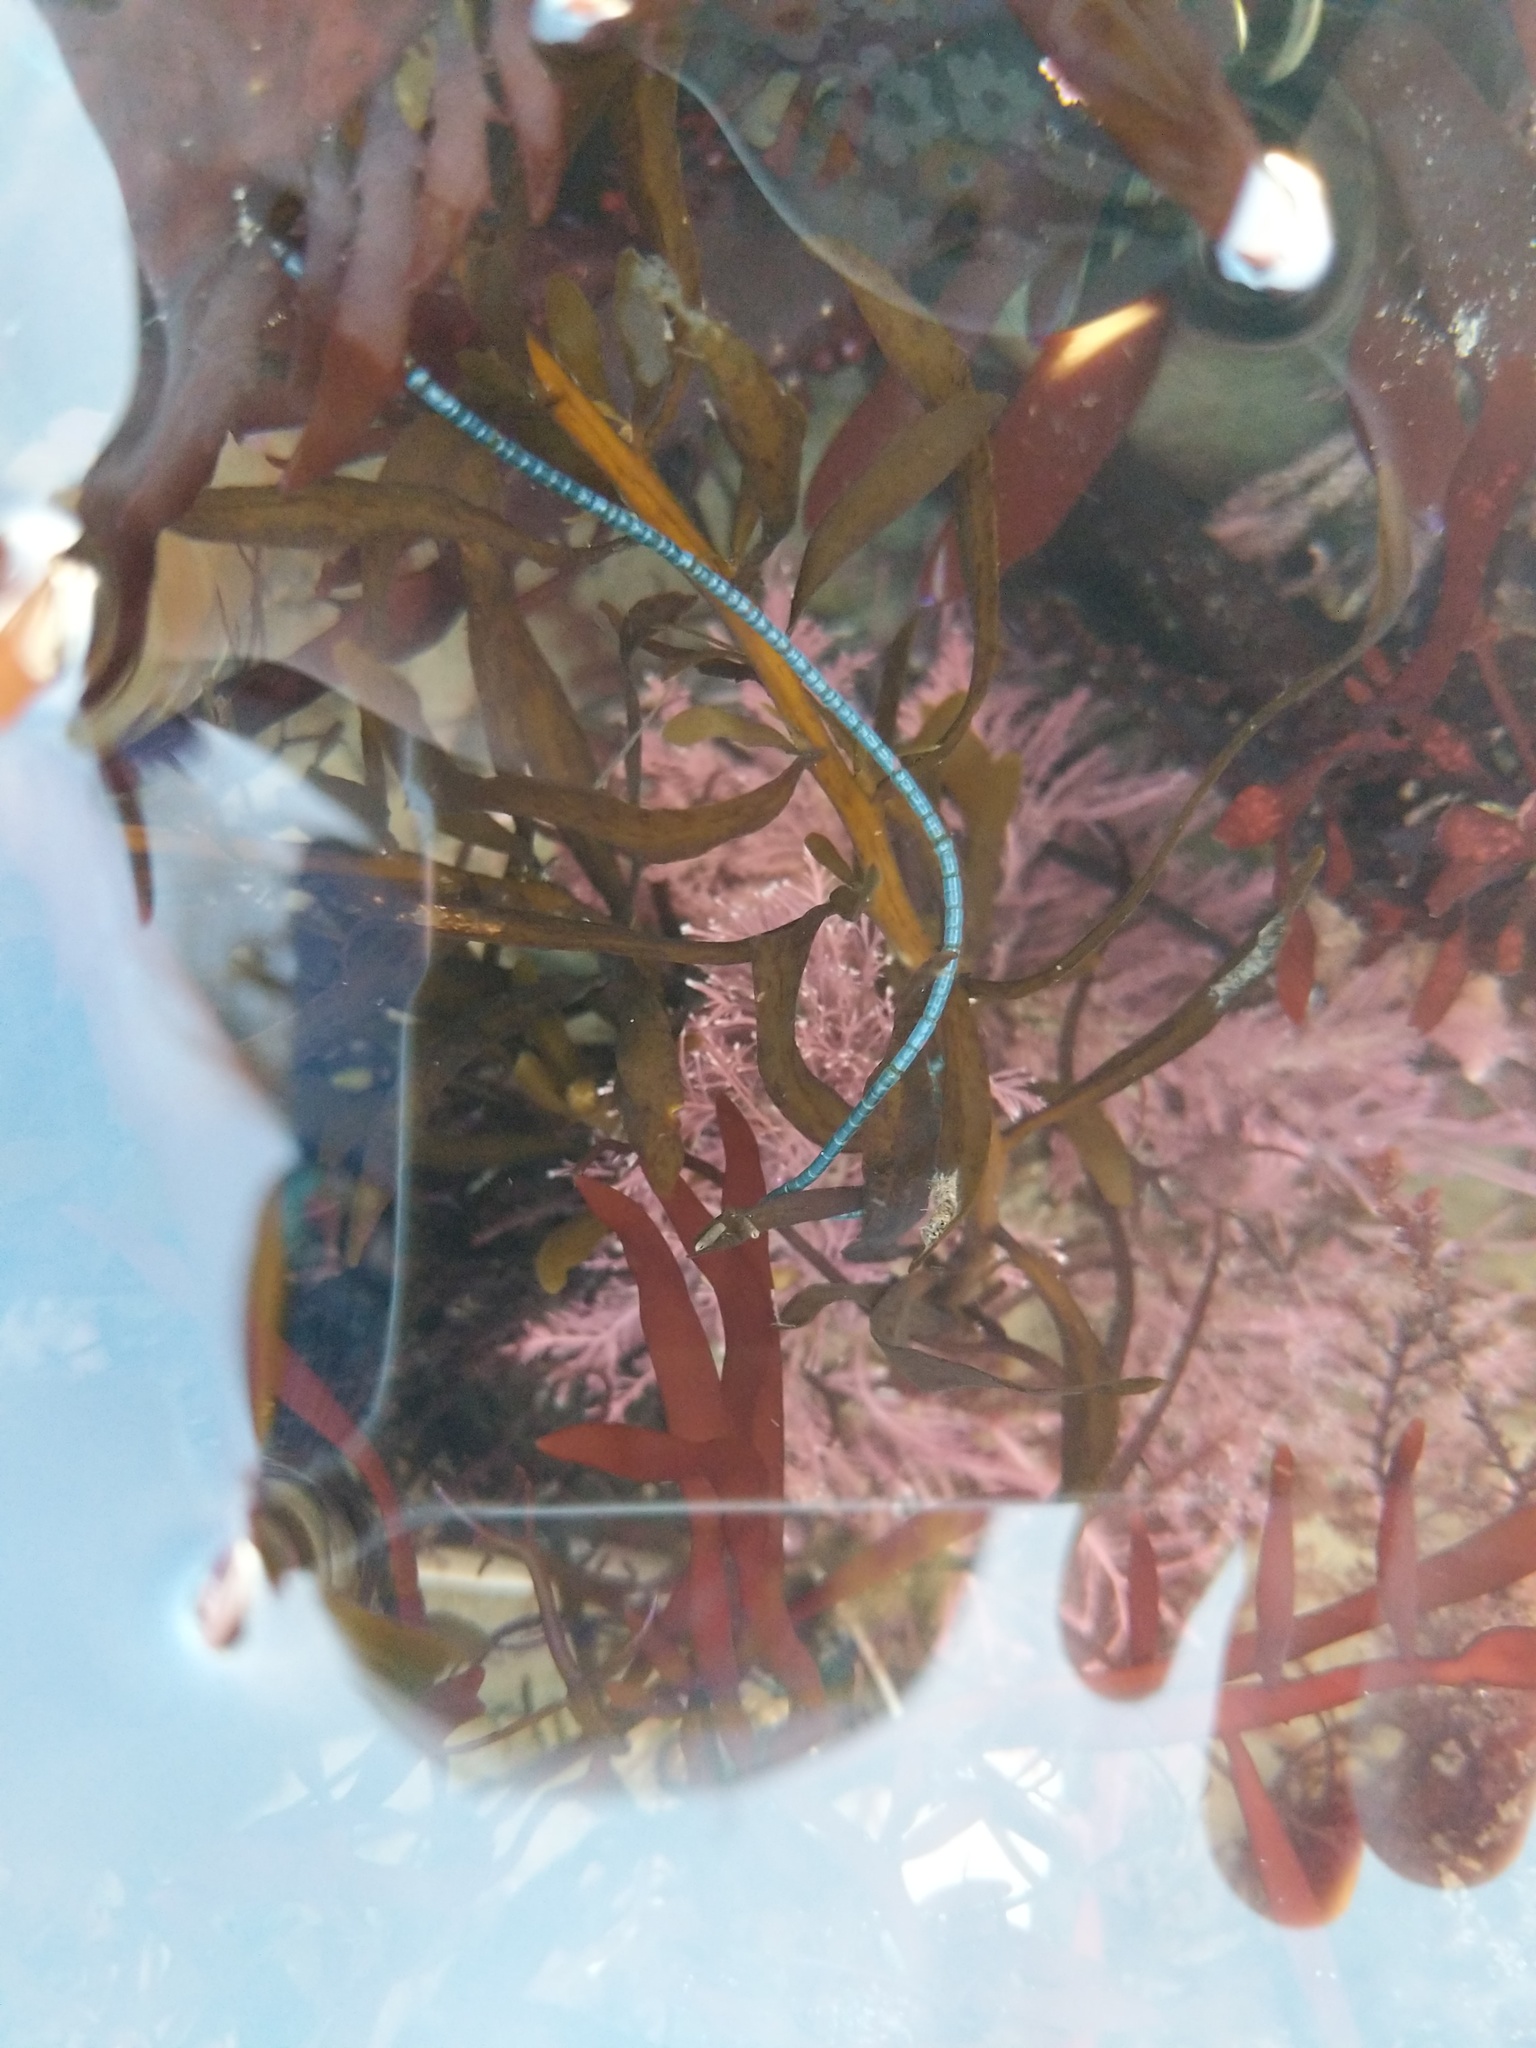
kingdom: Plantae
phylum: Chlorophyta
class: Ulvophyceae
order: Cladophorales
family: Cladophoraceae
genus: Chaetomorpha
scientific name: Chaetomorpha spiralis
